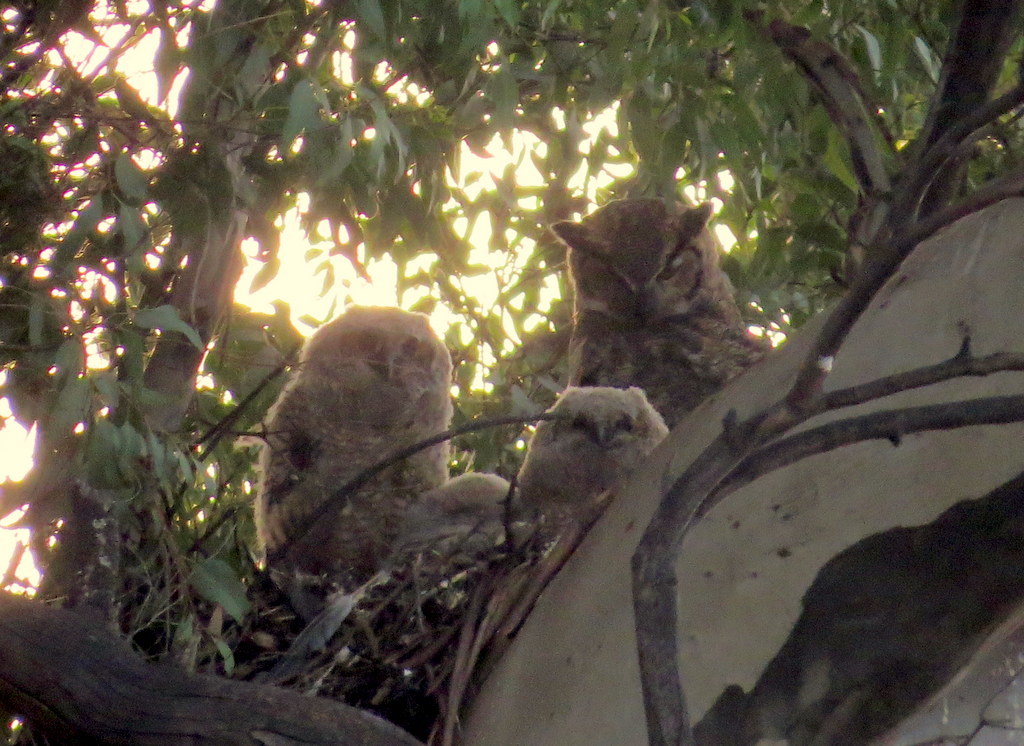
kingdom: Animalia
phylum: Chordata
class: Aves
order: Strigiformes
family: Strigidae
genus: Bubo
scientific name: Bubo virginianus
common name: Great horned owl
